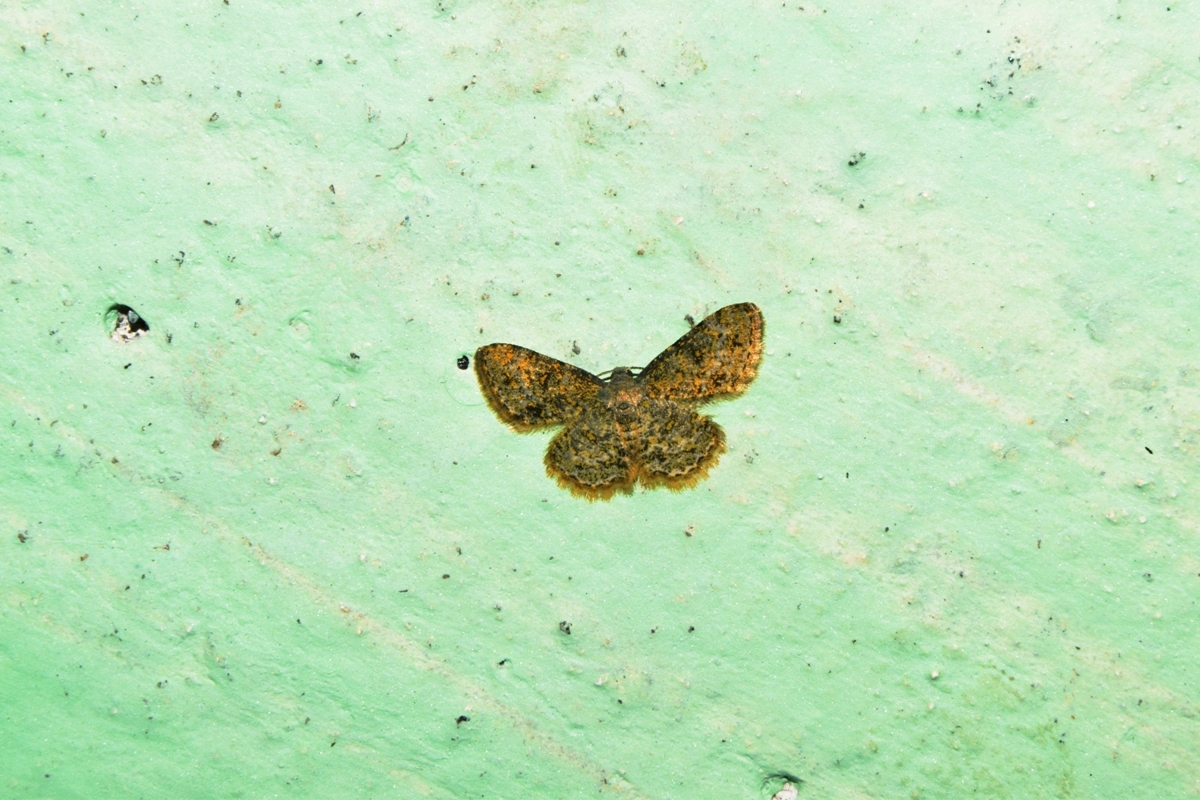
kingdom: Animalia
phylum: Arthropoda
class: Insecta
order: Lepidoptera
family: Geometridae
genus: Dischidesia
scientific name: Dischidesia cinerea
